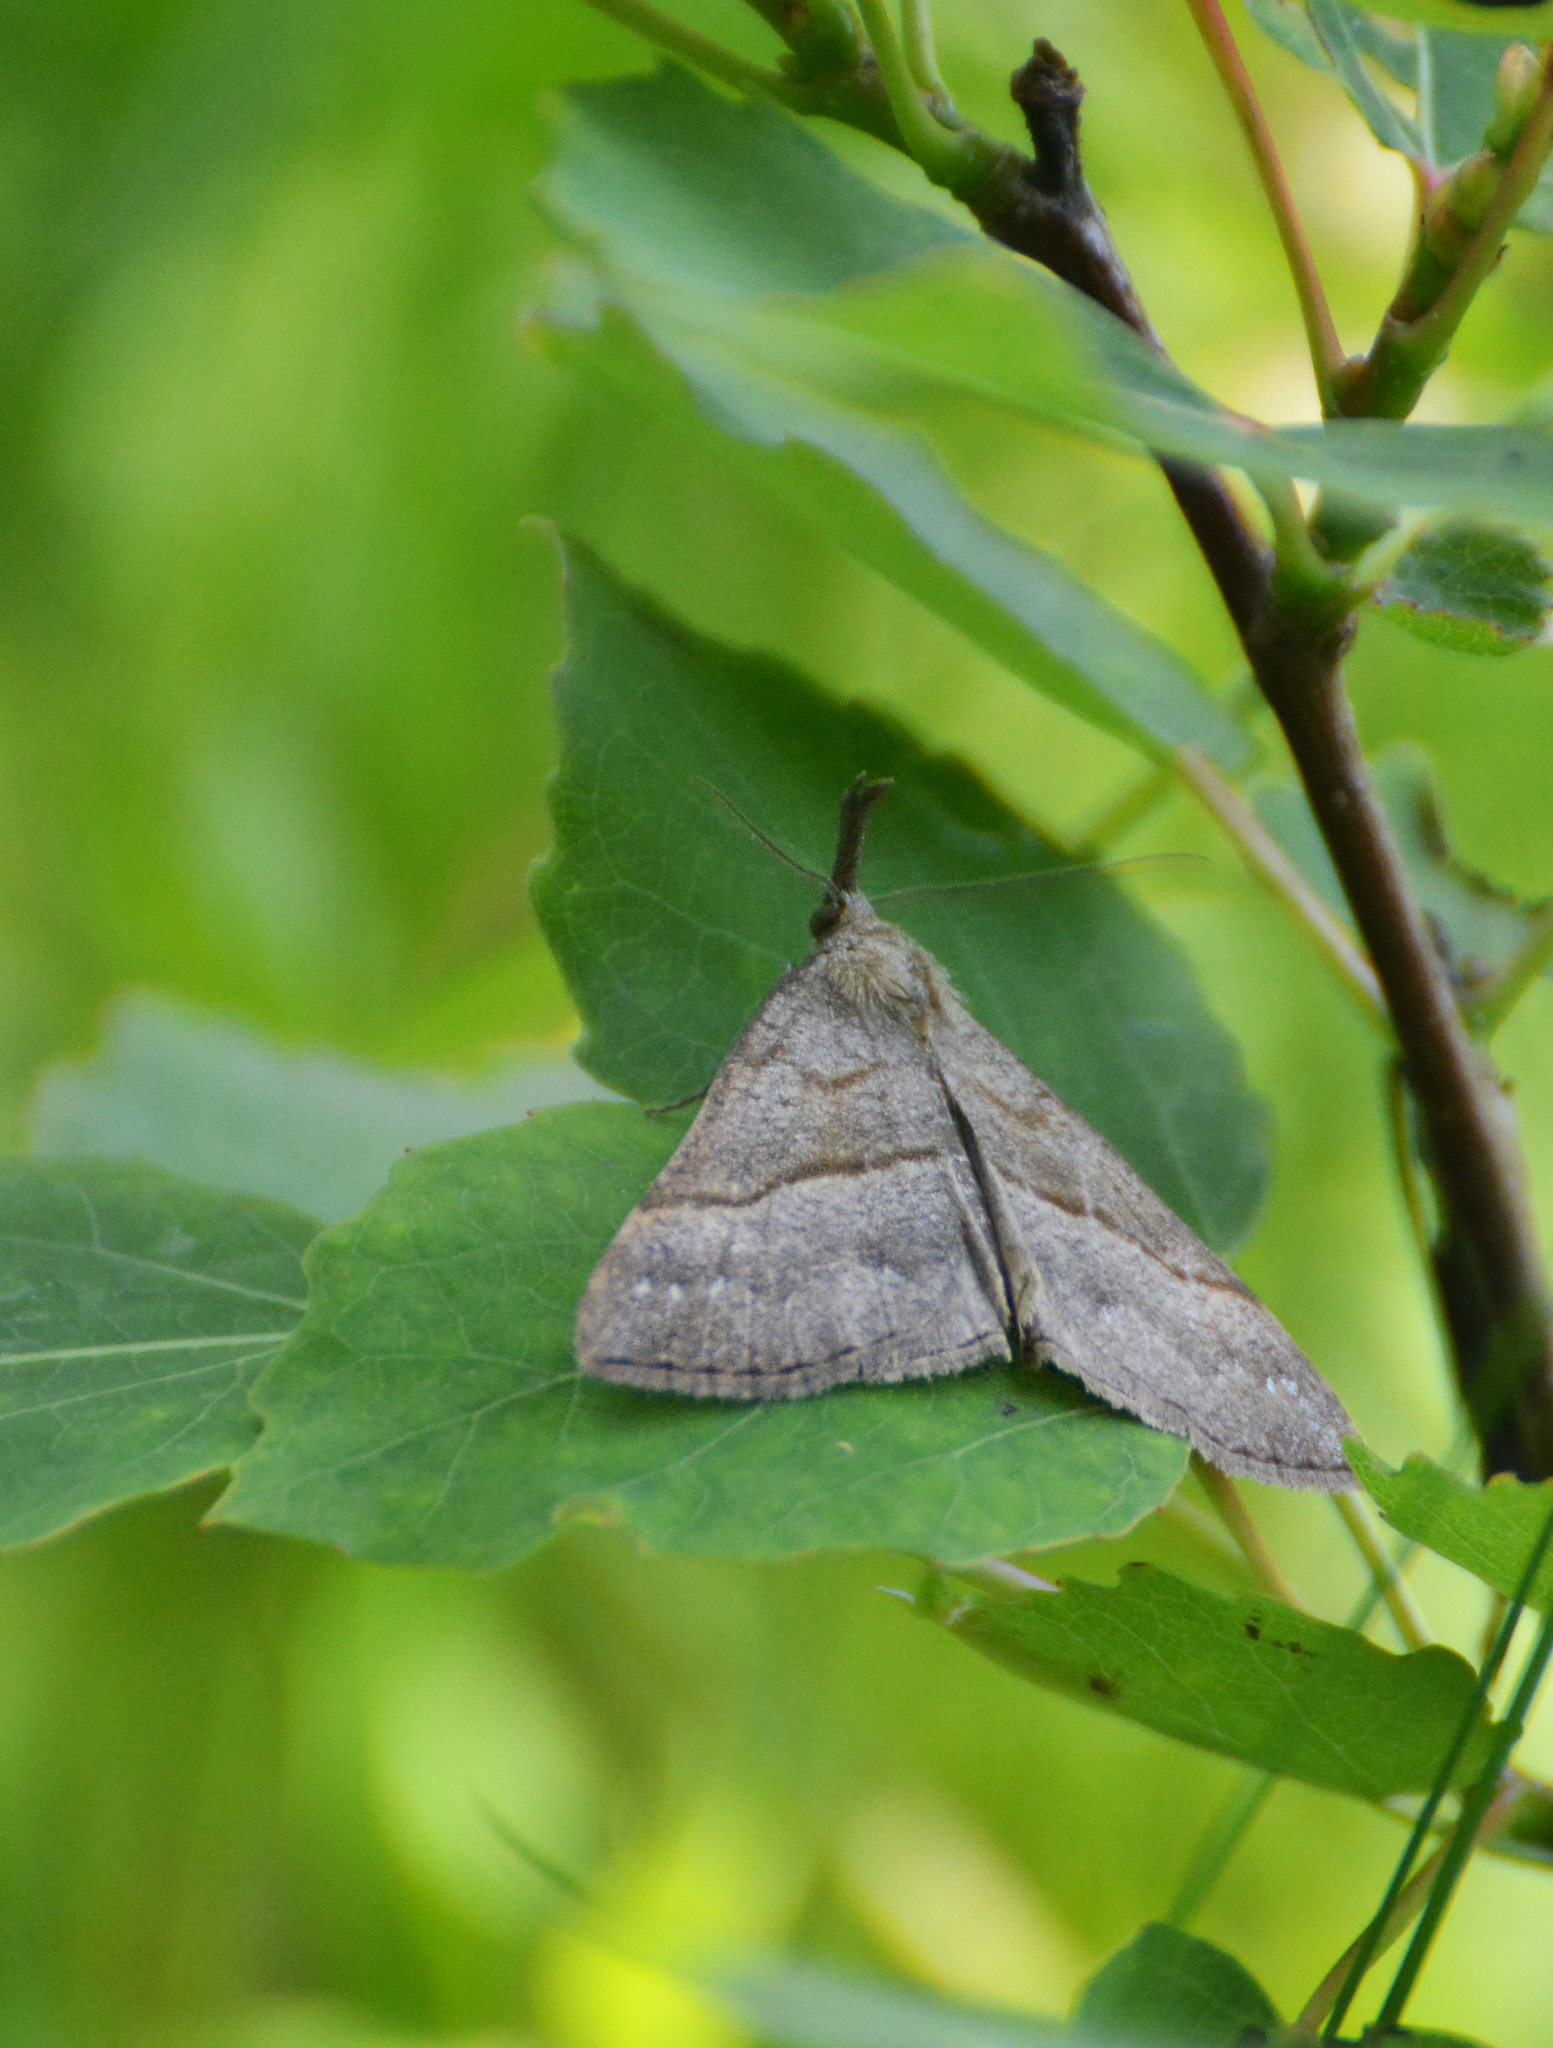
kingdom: Animalia
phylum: Arthropoda
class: Insecta
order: Lepidoptera
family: Erebidae
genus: Hypena
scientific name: Hypena proboscidalis
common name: Snout
